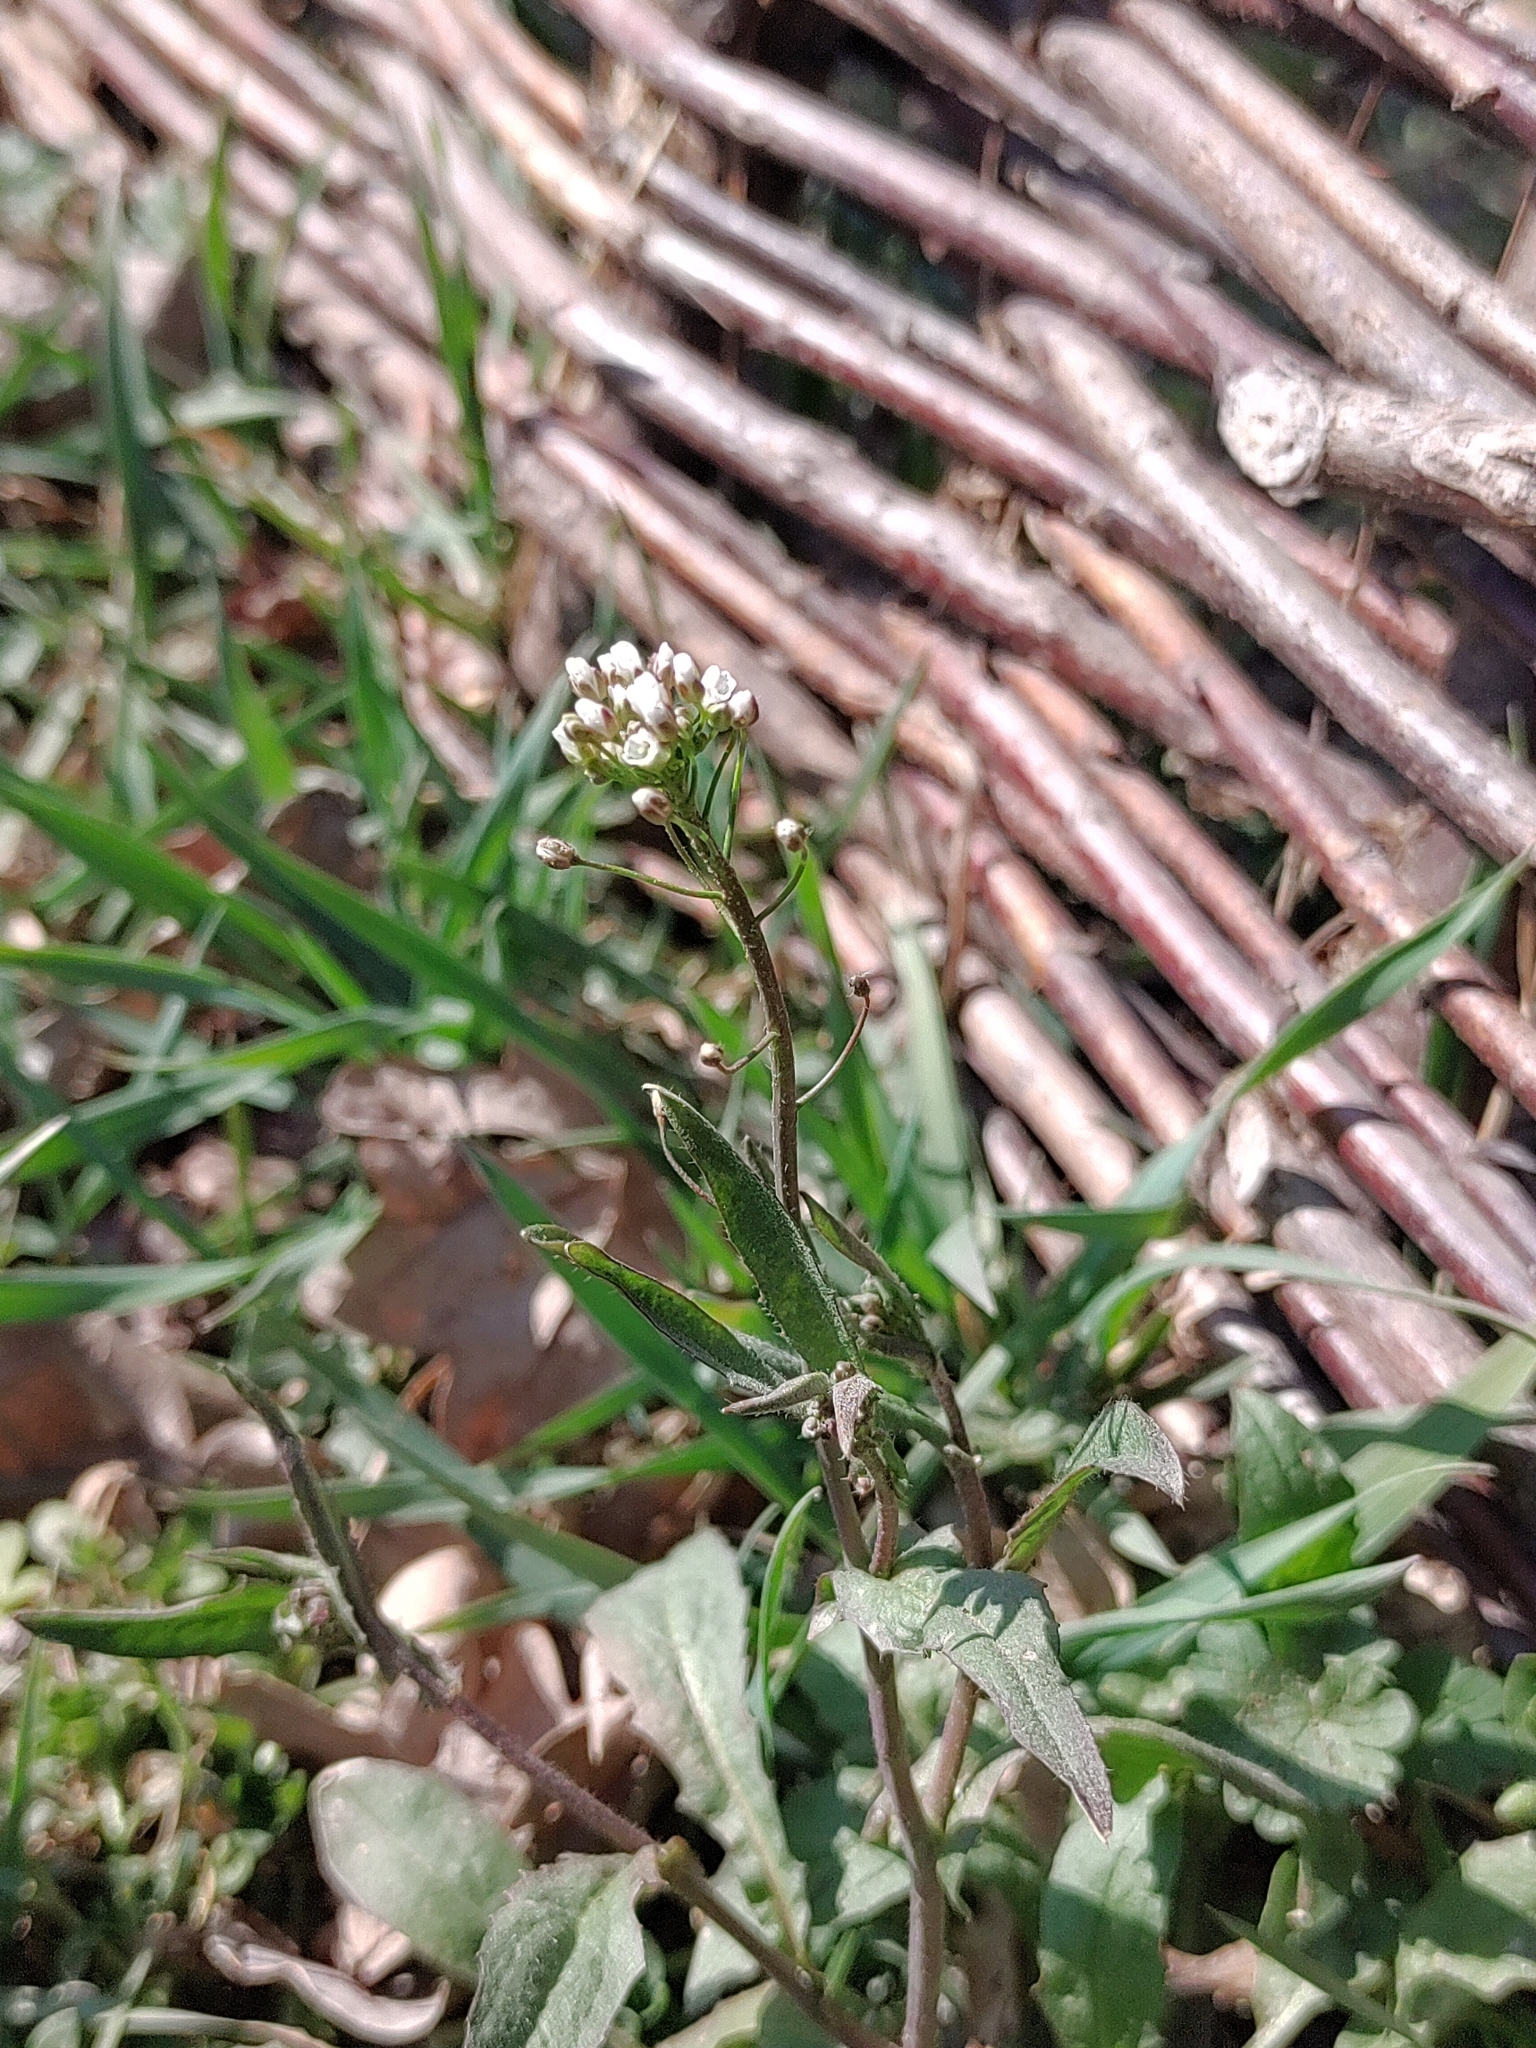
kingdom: Plantae
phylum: Tracheophyta
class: Magnoliopsida
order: Brassicales
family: Brassicaceae
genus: Capsella
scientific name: Capsella bursa-pastoris
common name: Shepherd's purse
